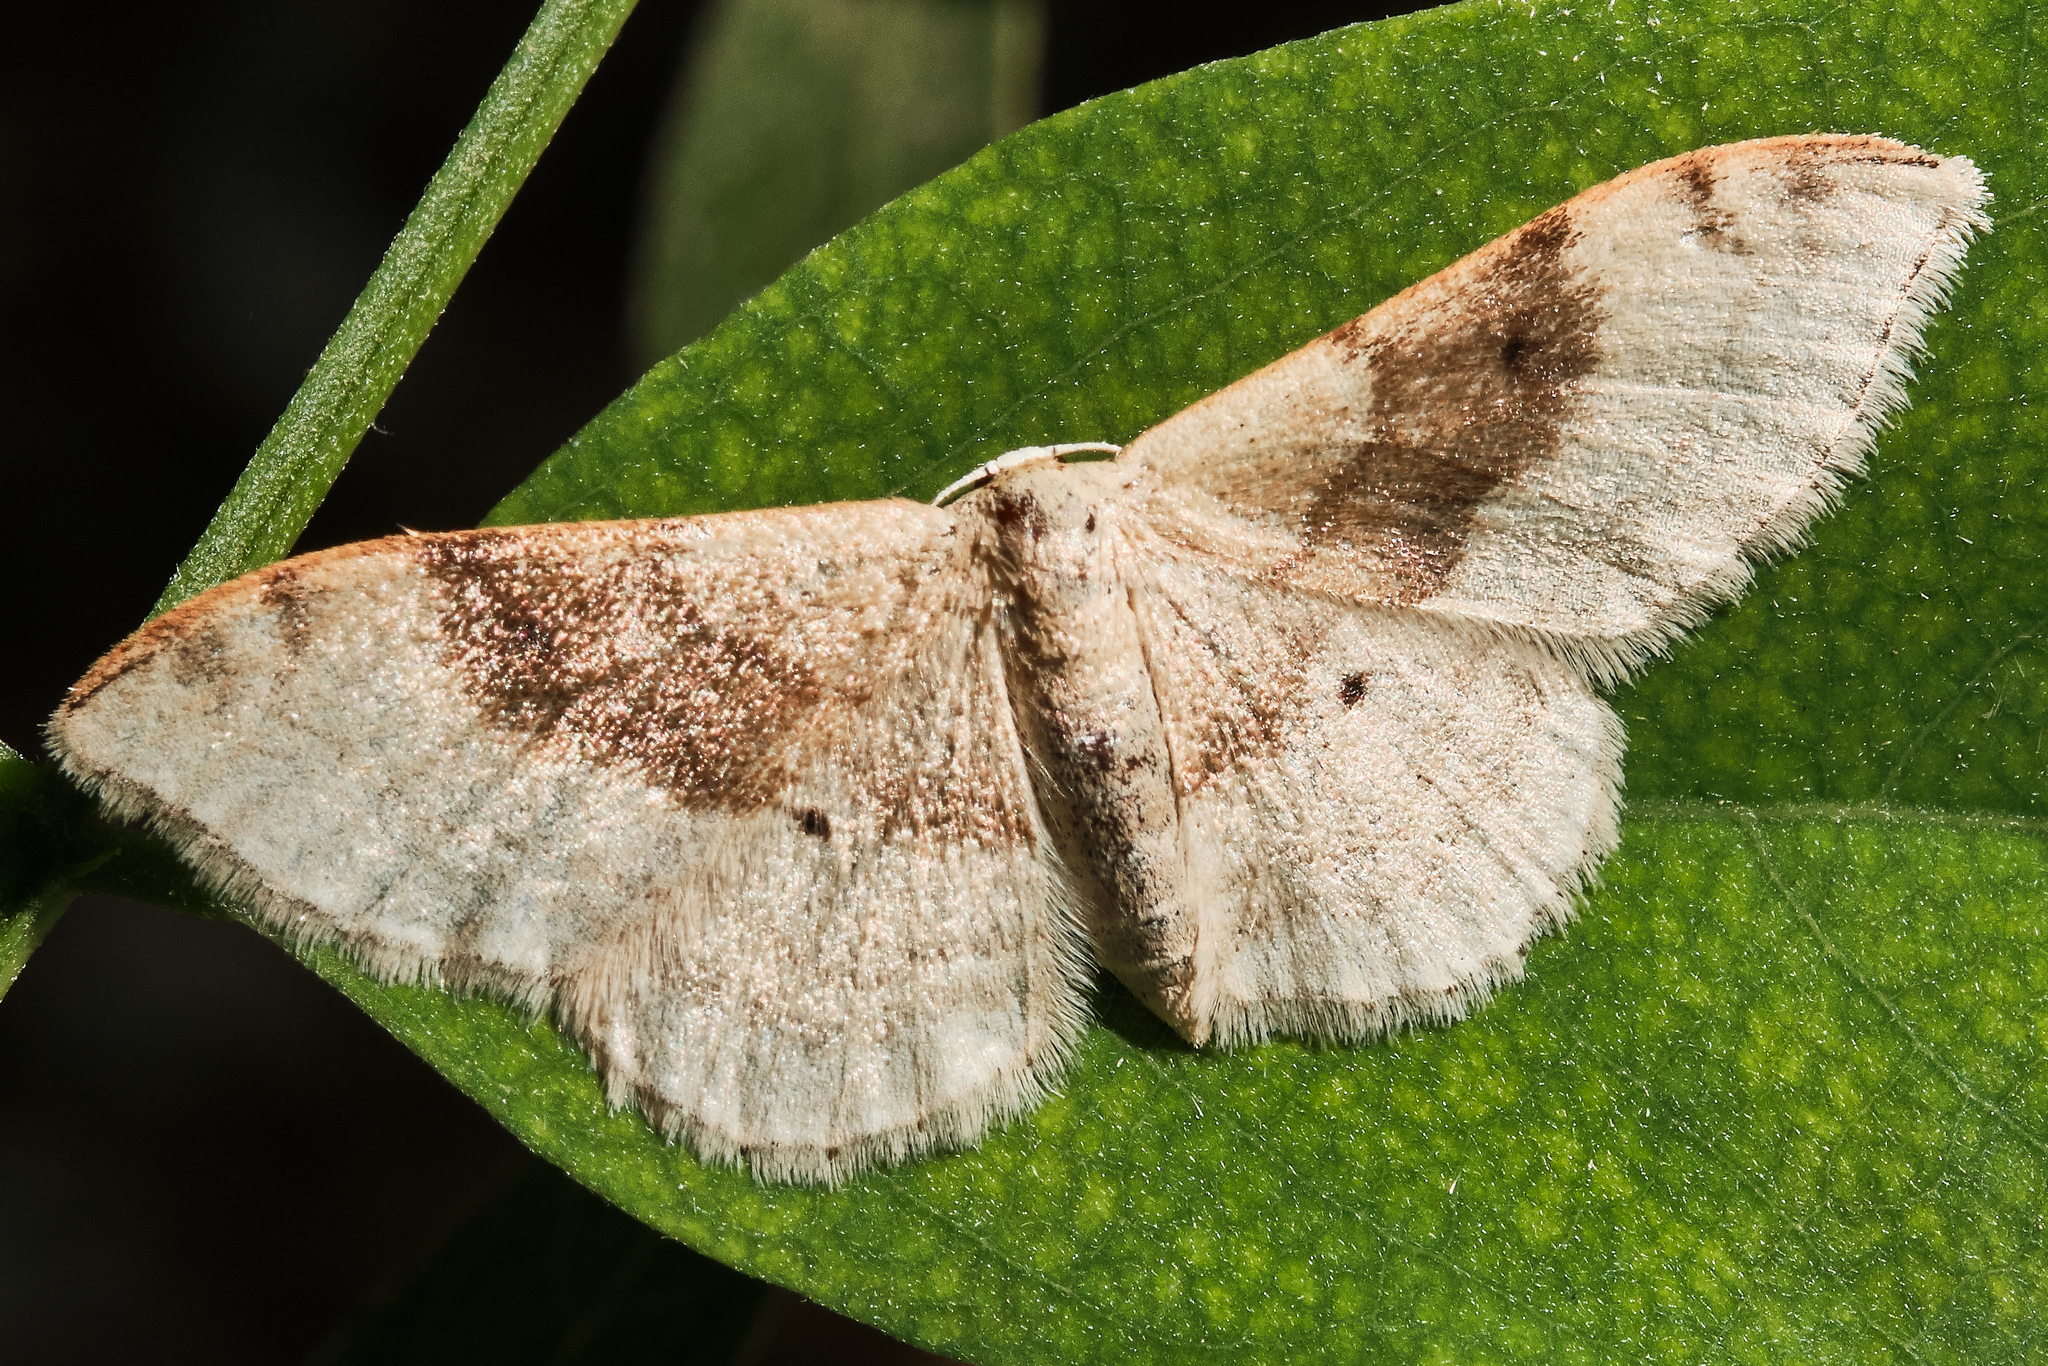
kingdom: Animalia
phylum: Arthropoda
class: Insecta
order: Lepidoptera
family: Geometridae
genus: Idaea
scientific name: Idaea degeneraria
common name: Portland ribbon wave
